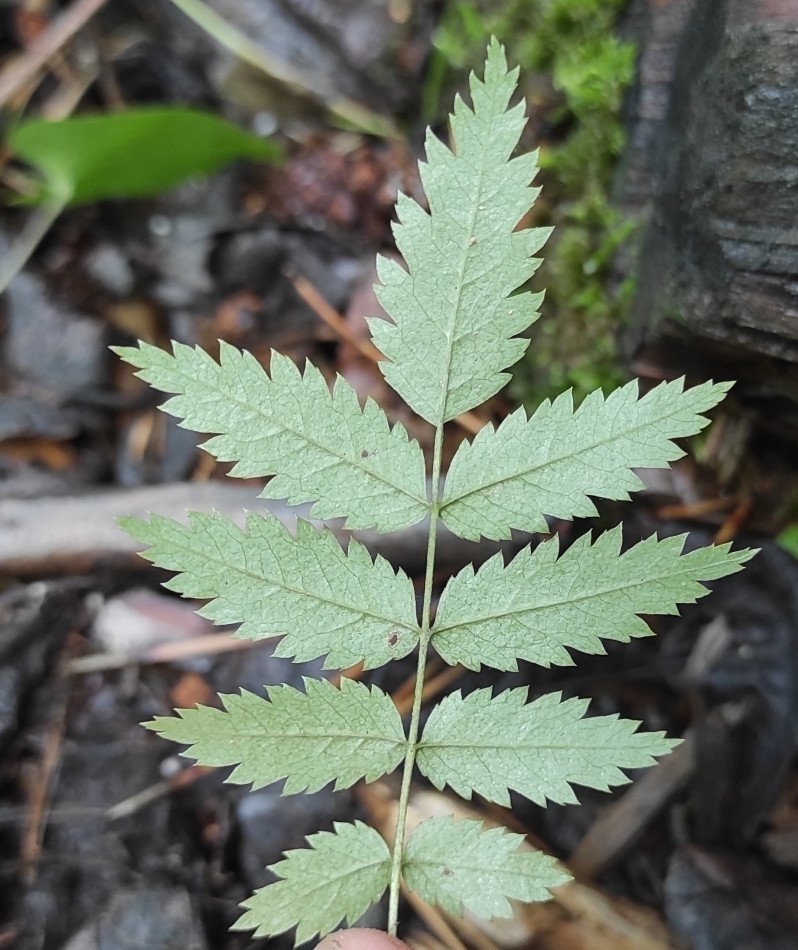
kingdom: Plantae
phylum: Tracheophyta
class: Magnoliopsida
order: Rosales
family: Rosaceae
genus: Sorbus
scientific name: Sorbus aucuparia
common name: Rowan
